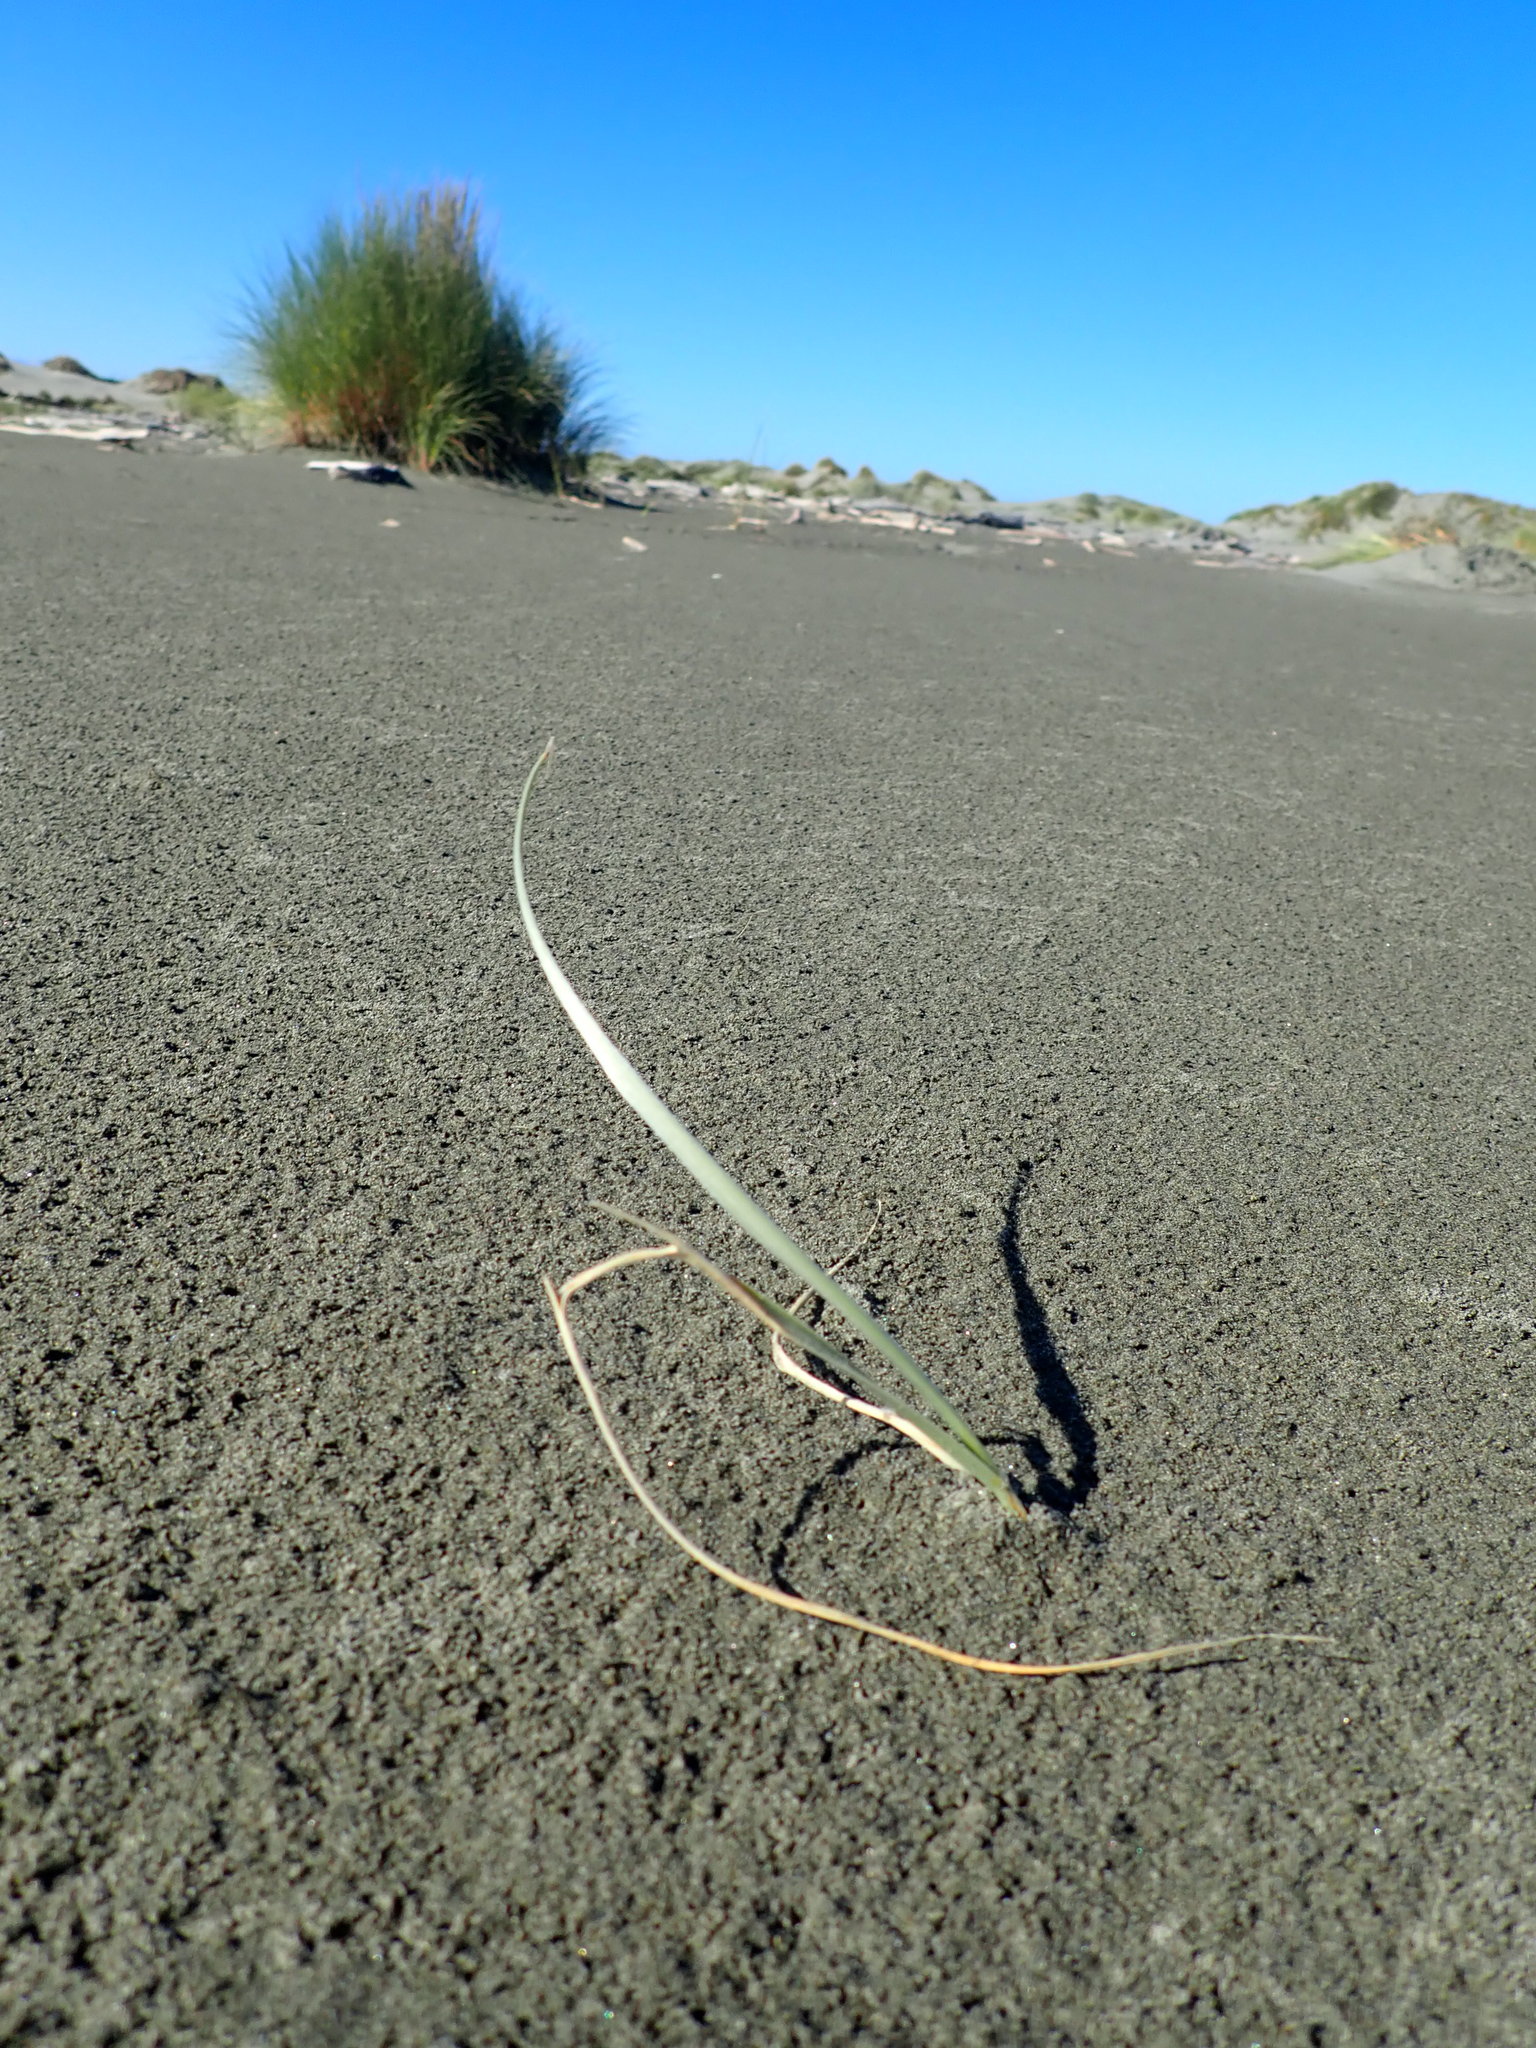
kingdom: Plantae
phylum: Tracheophyta
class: Liliopsida
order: Poales
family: Poaceae
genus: Spinifex
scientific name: Spinifex sericeus
